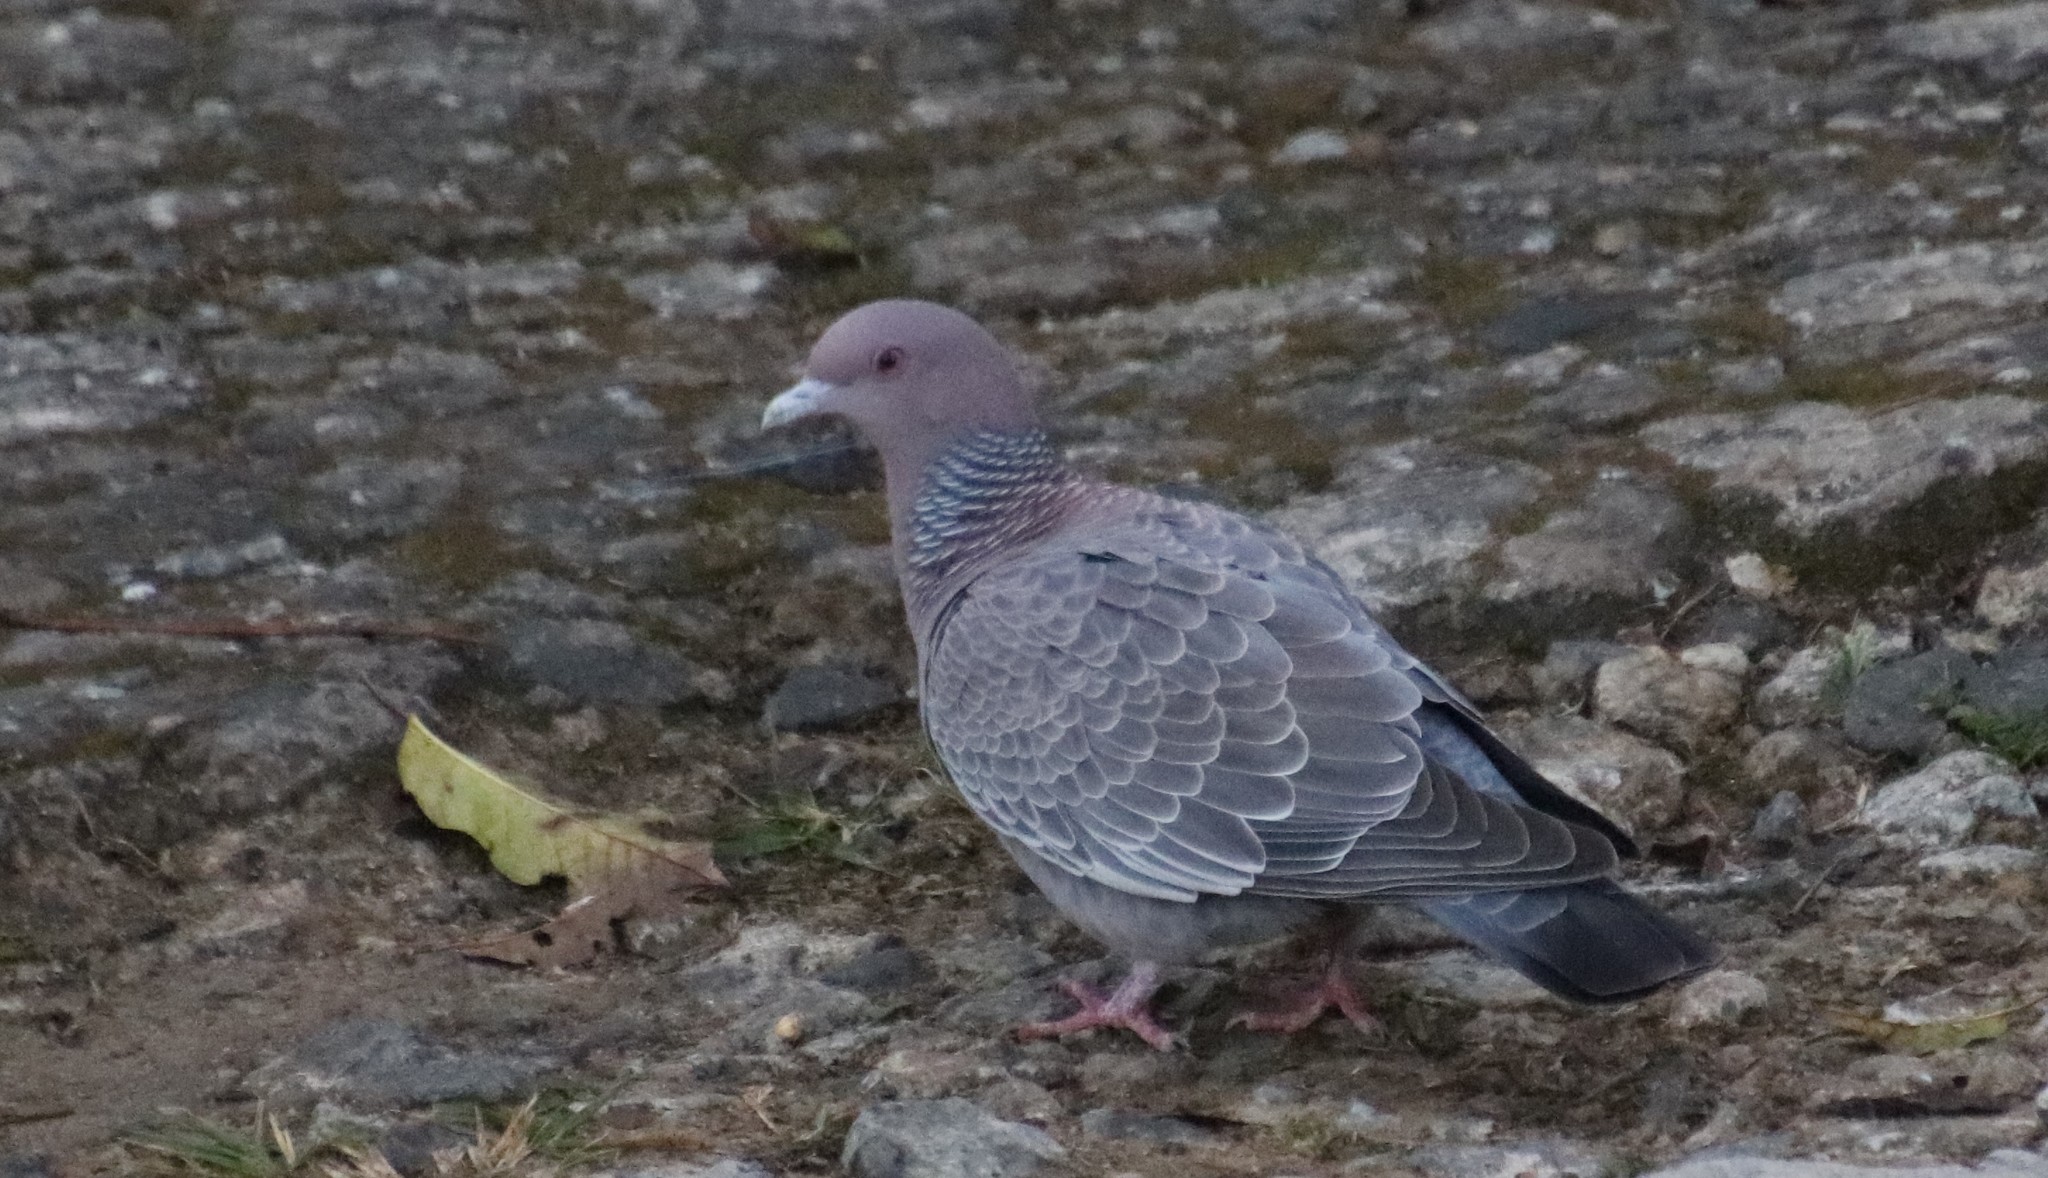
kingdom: Animalia
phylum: Chordata
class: Aves
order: Columbiformes
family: Columbidae
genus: Patagioenas
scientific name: Patagioenas picazuro
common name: Picazuro pigeon
